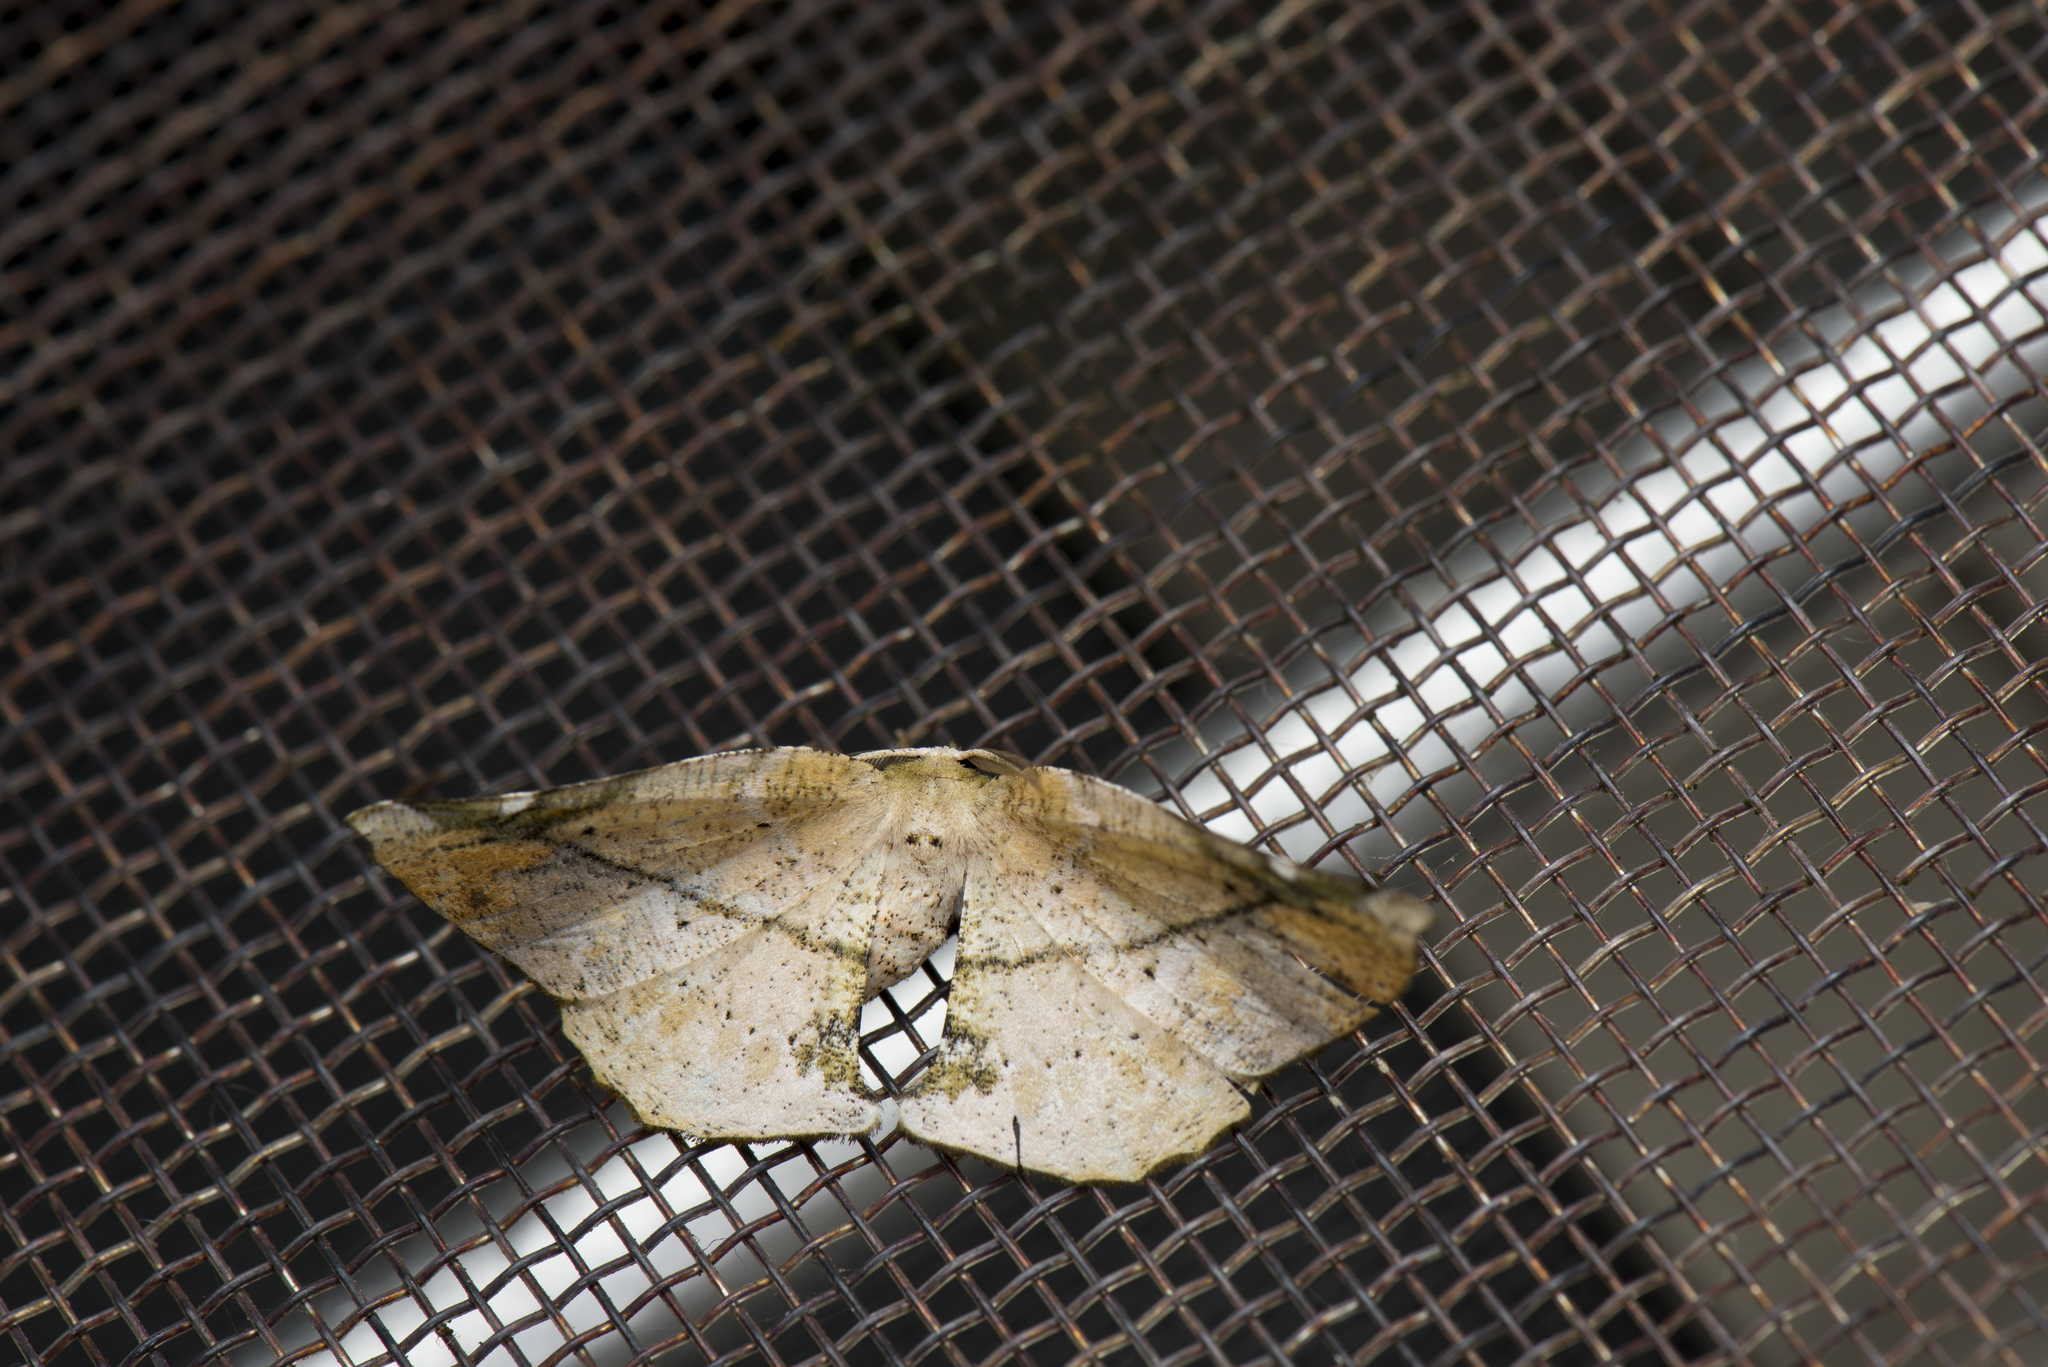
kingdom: Animalia
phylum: Arthropoda
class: Insecta
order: Lepidoptera
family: Geometridae
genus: Agaraeus
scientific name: Agaraeus discolor
